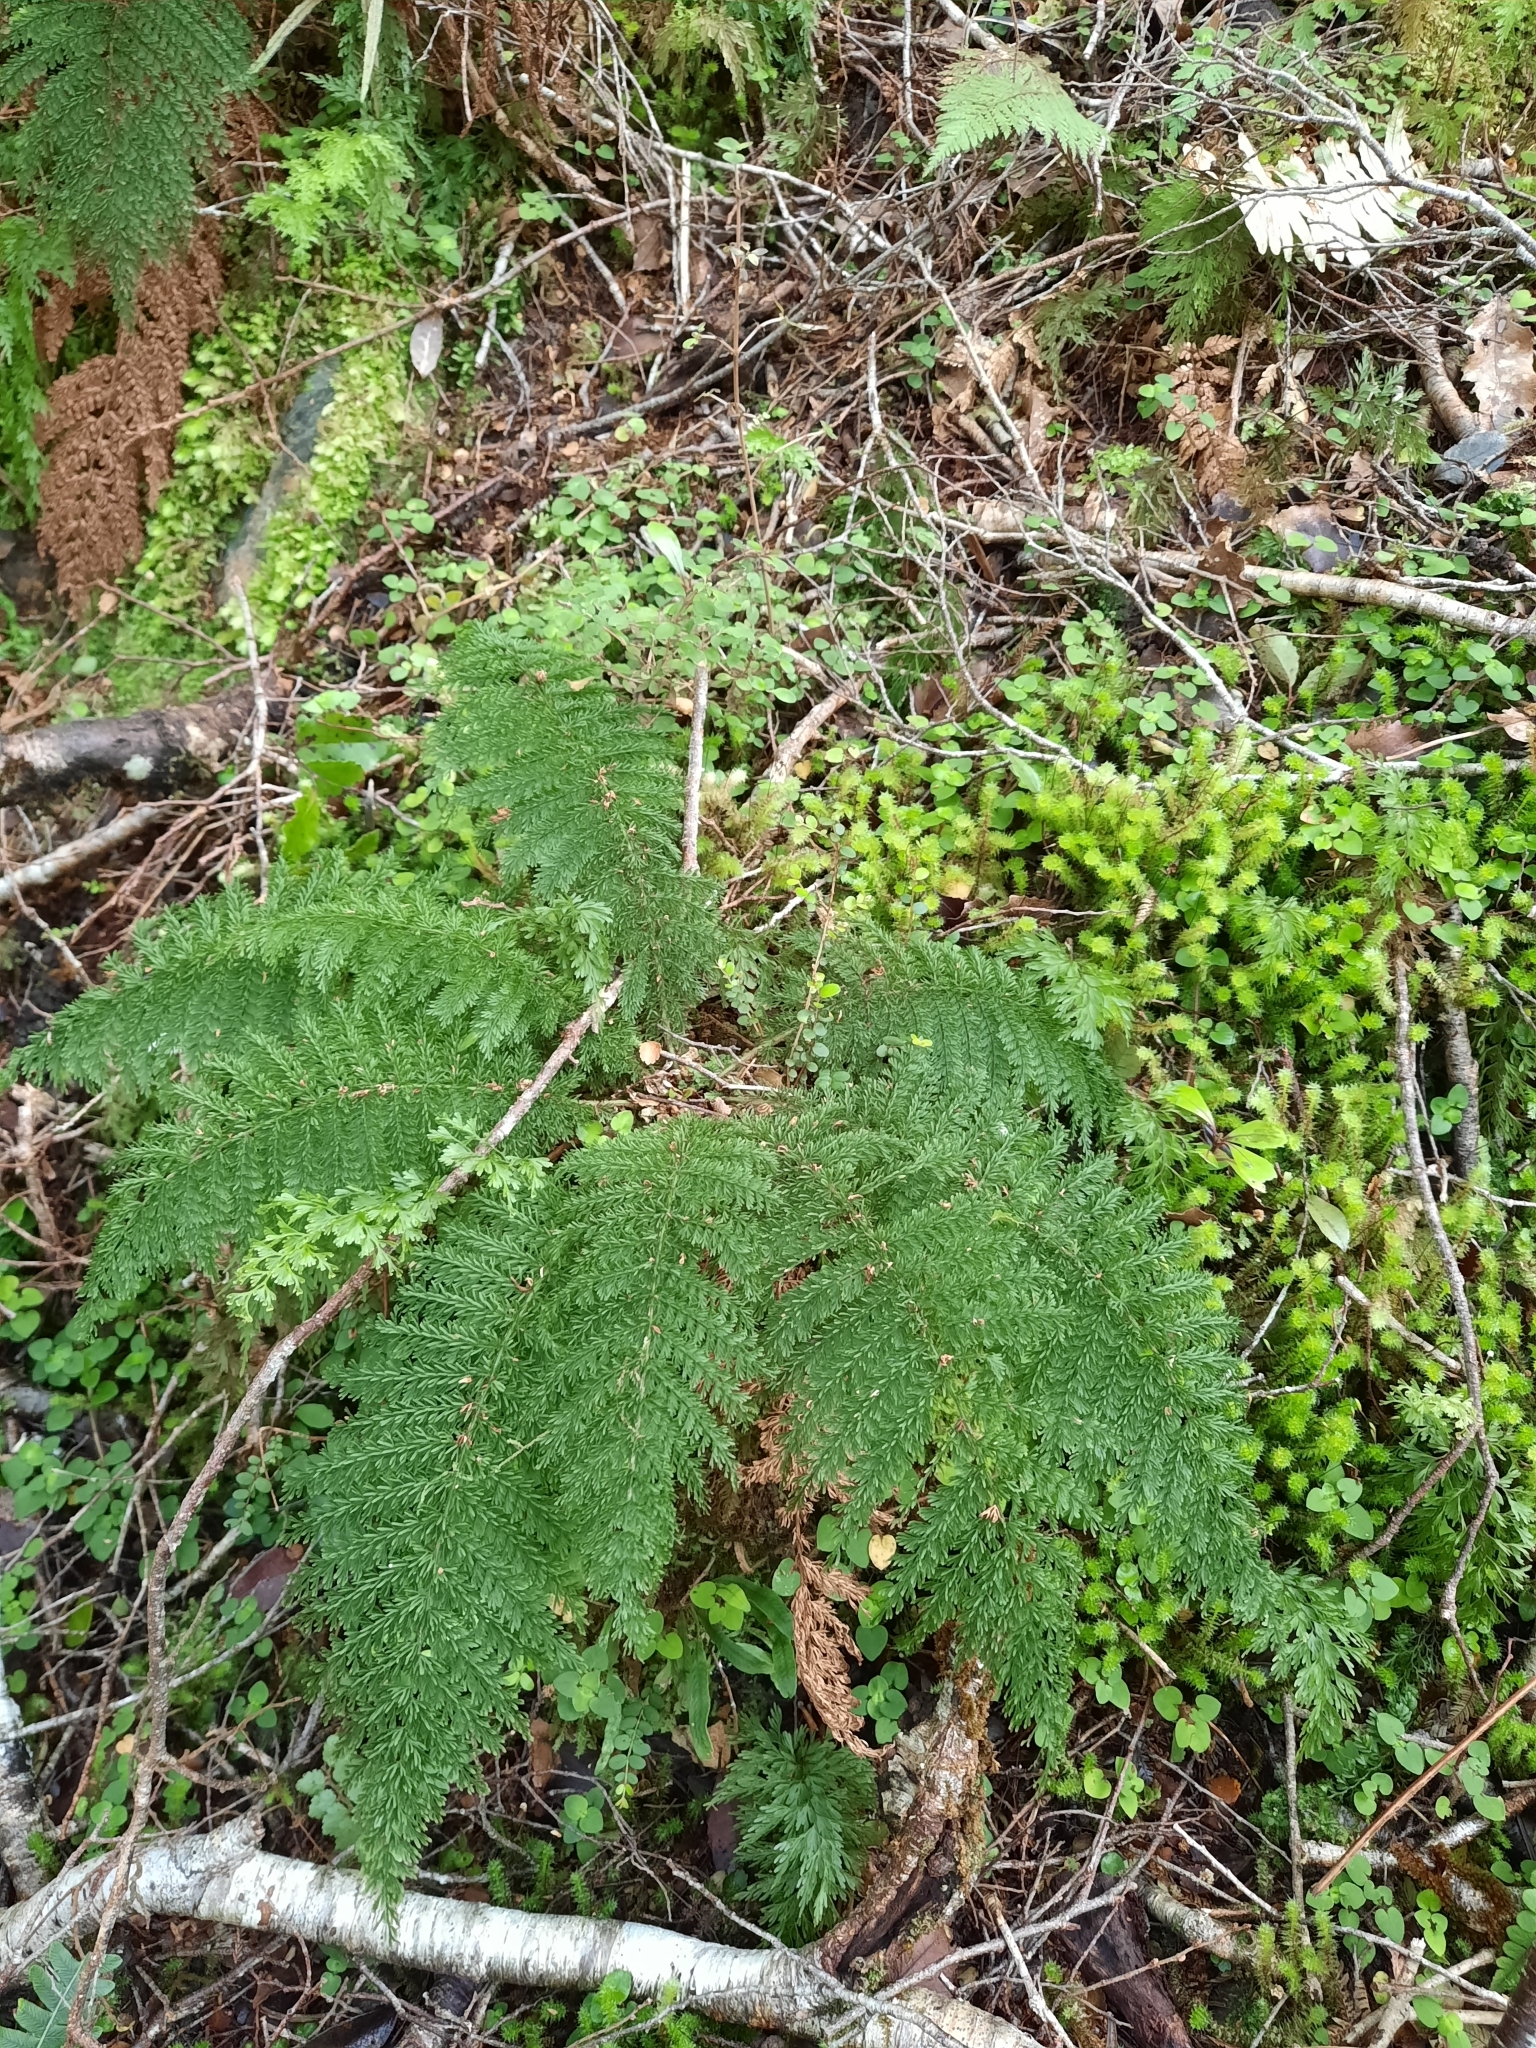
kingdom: Plantae
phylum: Tracheophyta
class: Polypodiopsida
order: Osmundales
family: Osmundaceae
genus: Leptopteris
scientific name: Leptopteris superba
